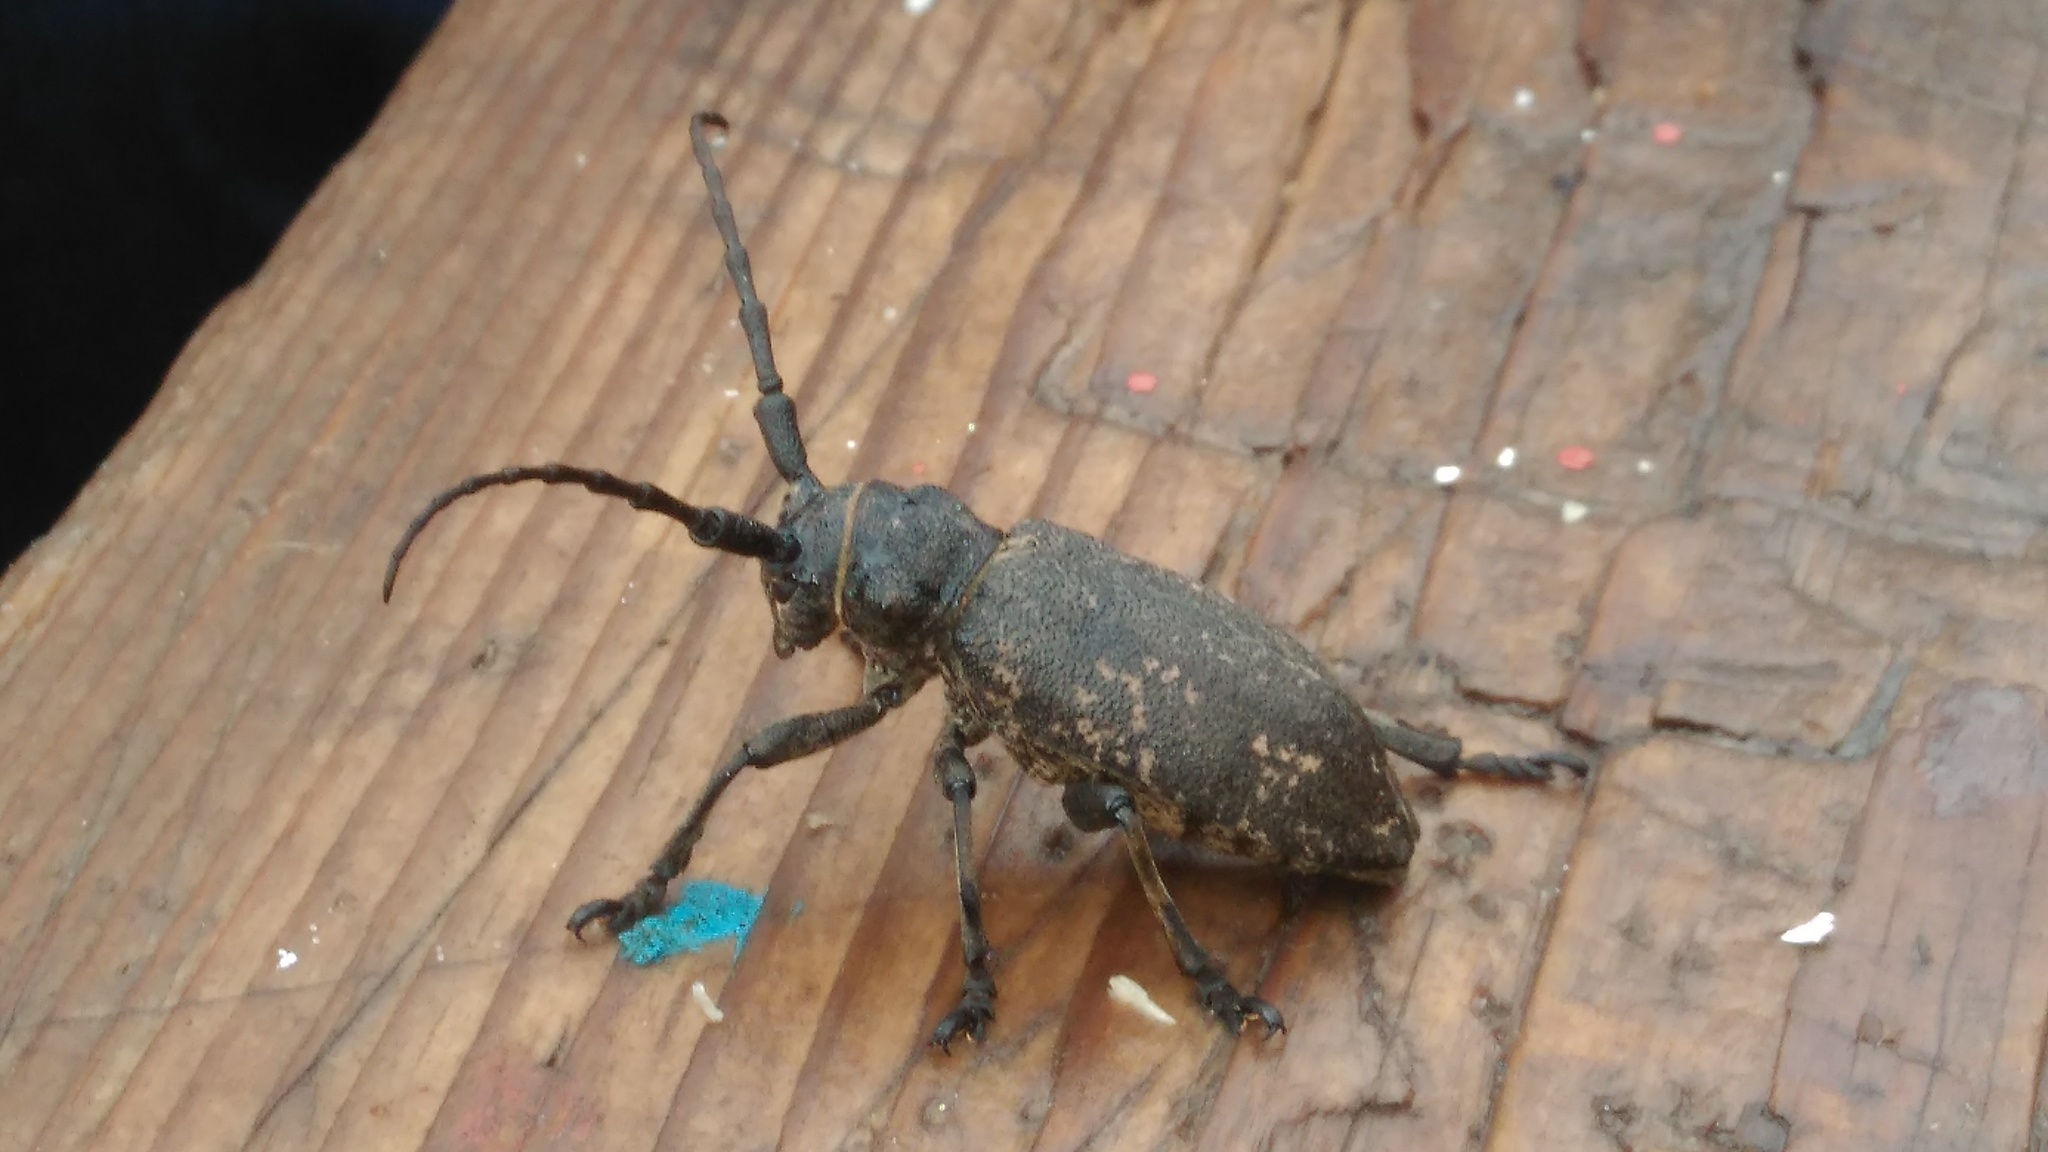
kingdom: Animalia
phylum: Arthropoda
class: Insecta
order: Coleoptera
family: Cerambycidae
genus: Lamia
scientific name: Lamia textor
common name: Weaver beetle
